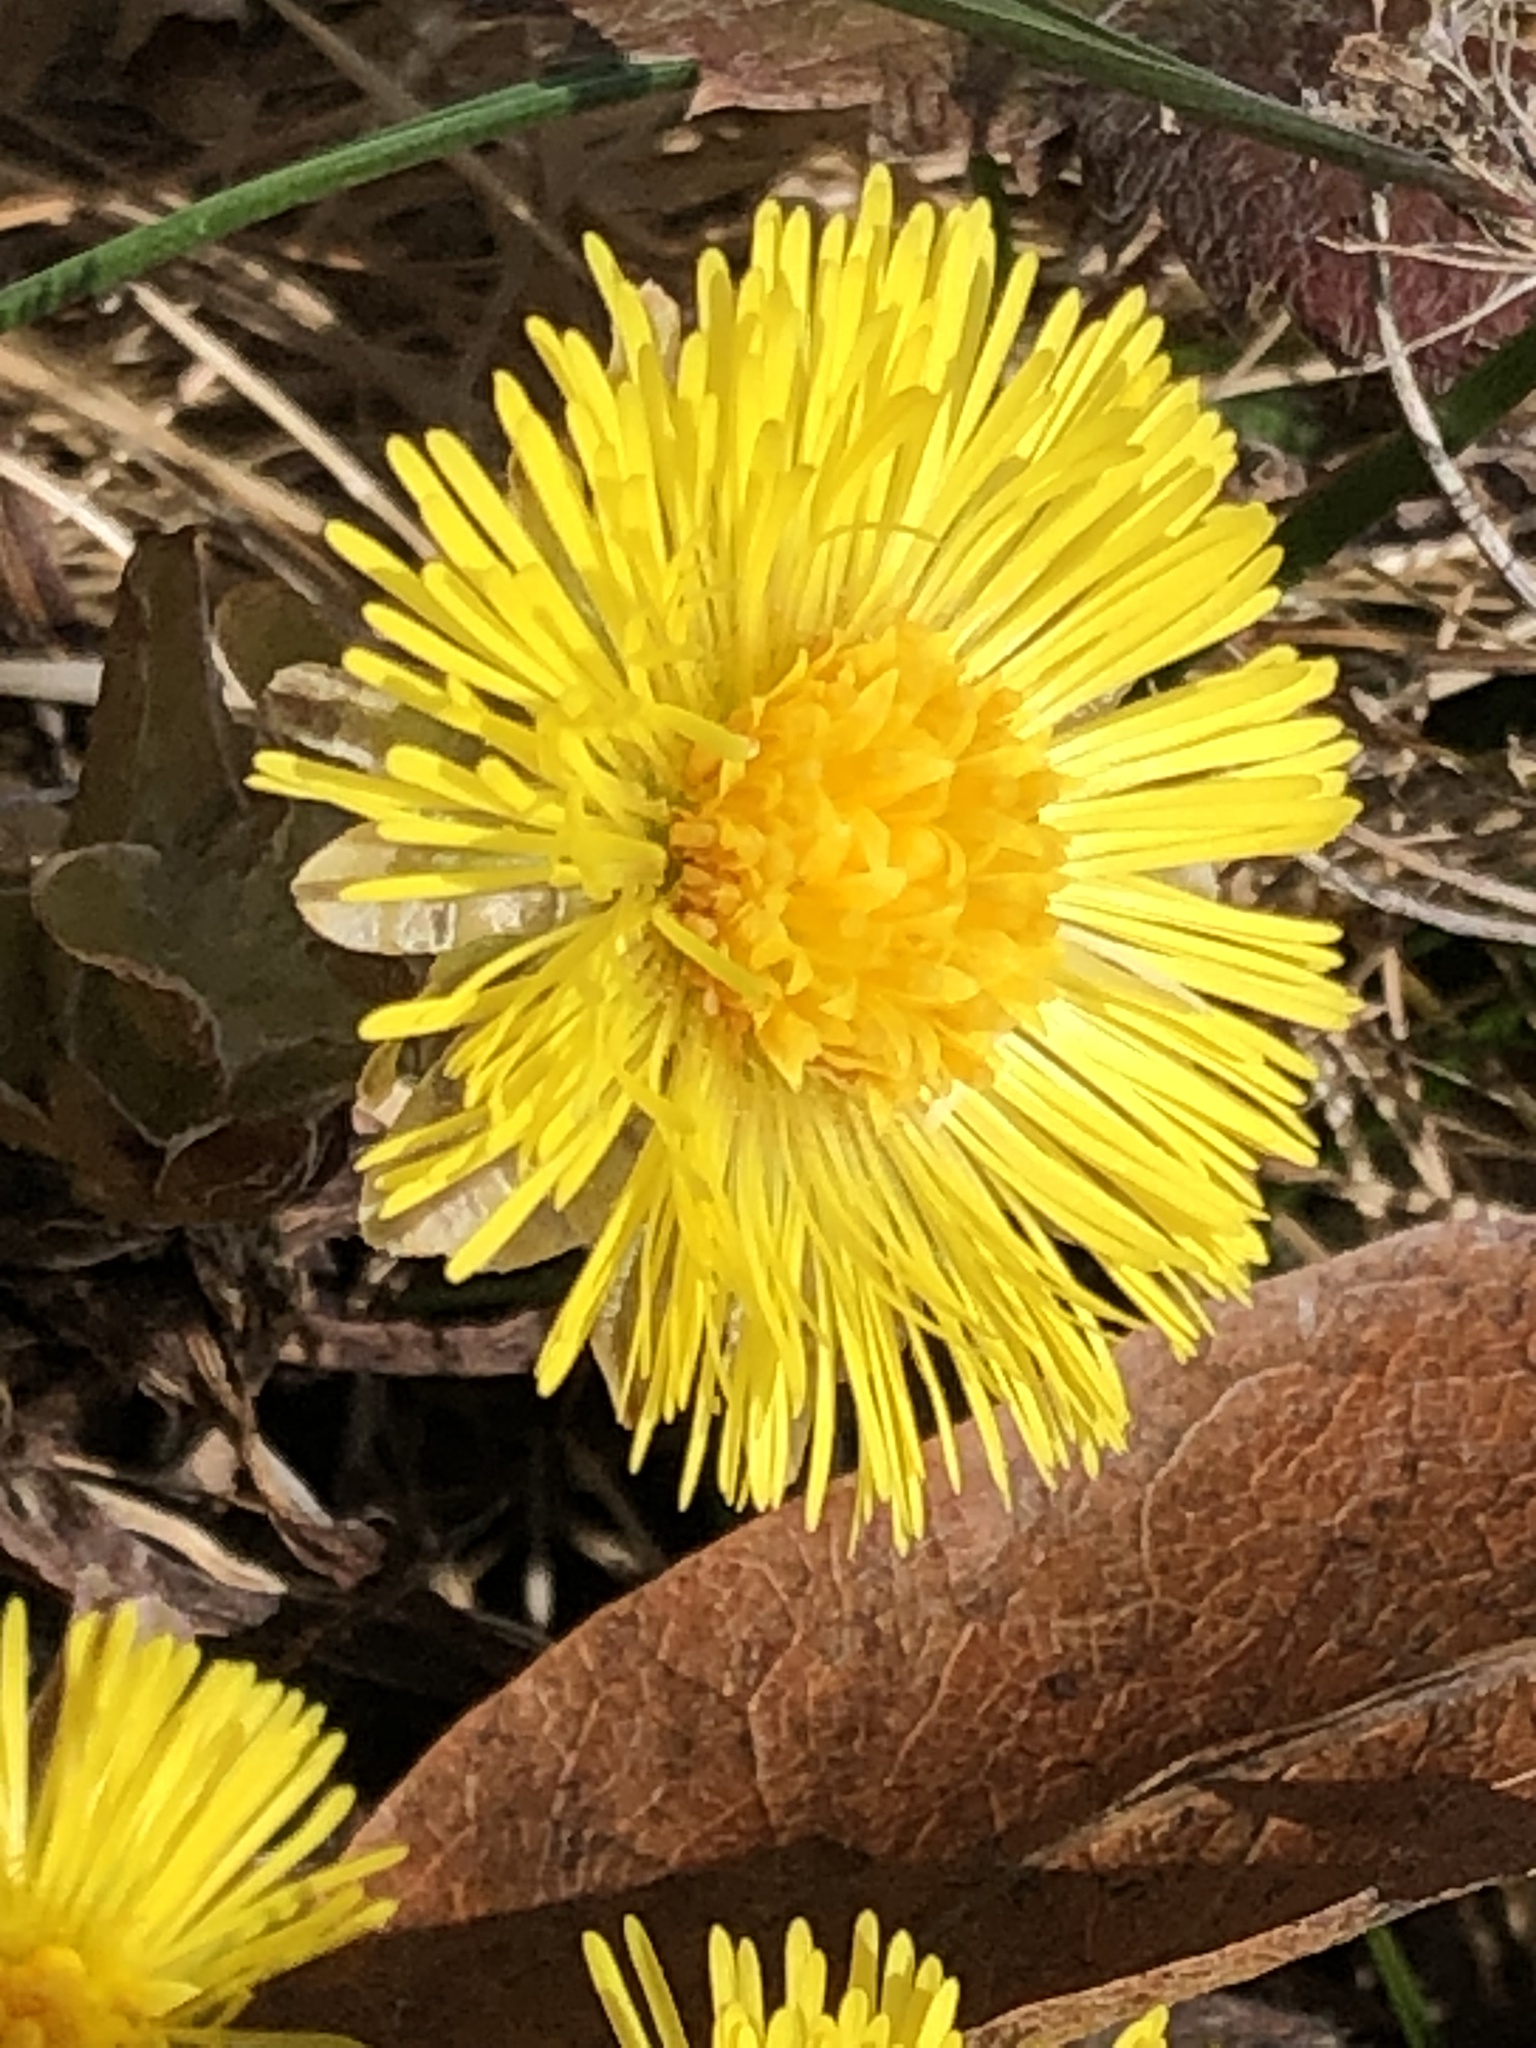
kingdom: Plantae
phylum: Tracheophyta
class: Magnoliopsida
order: Asterales
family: Asteraceae
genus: Tussilago
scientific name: Tussilago farfara
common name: Coltsfoot
